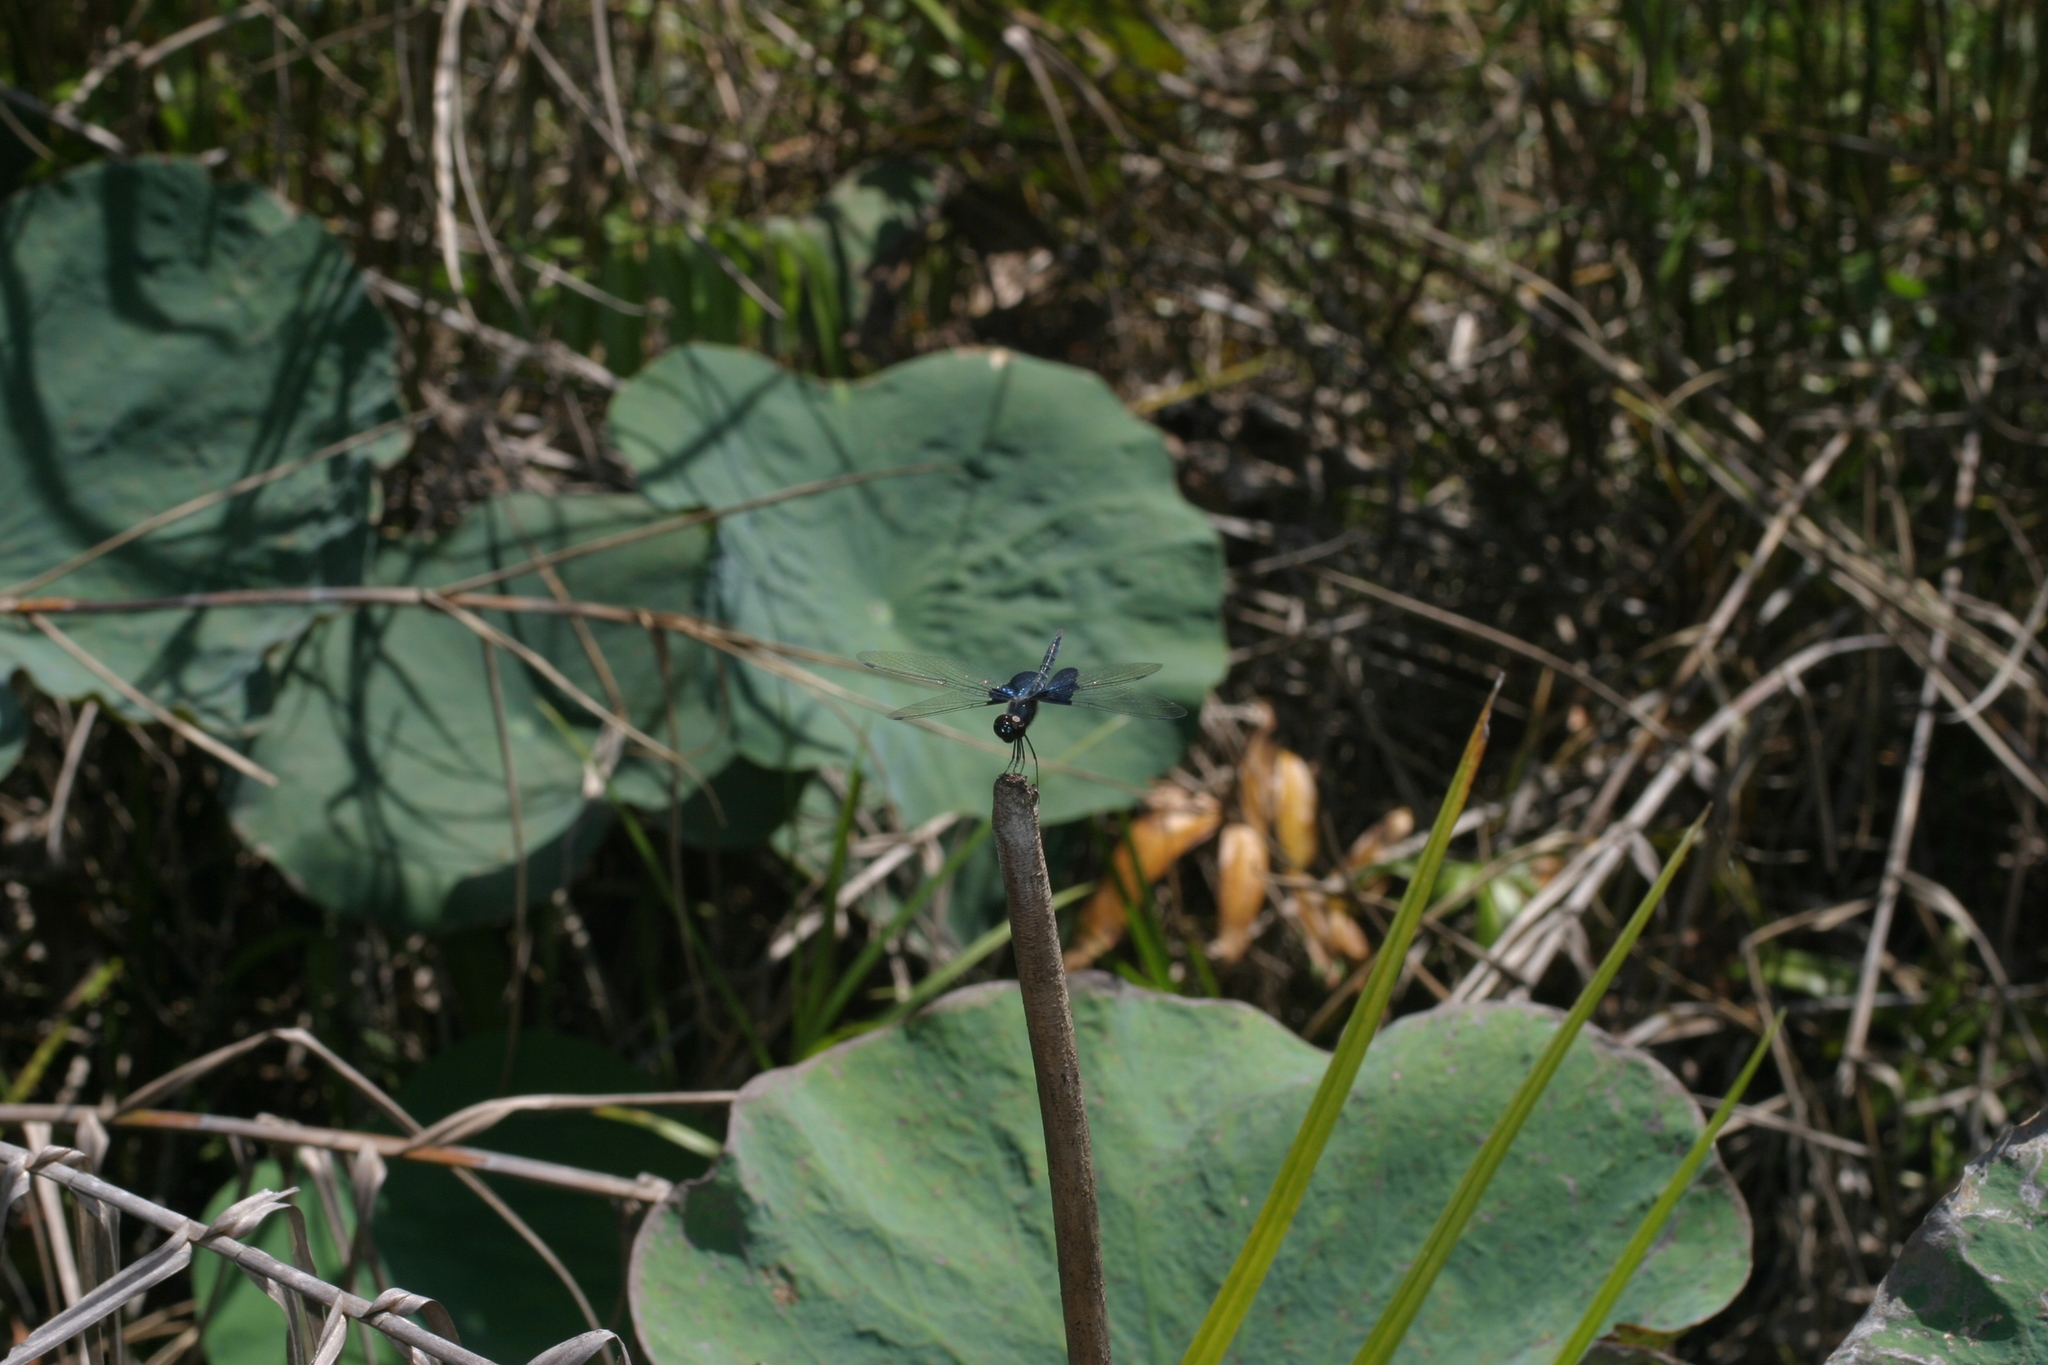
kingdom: Plantae
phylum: Tracheophyta
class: Magnoliopsida
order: Proteales
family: Nelumbonaceae
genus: Nelumbo
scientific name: Nelumbo nucifera
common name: Sacred lotus
